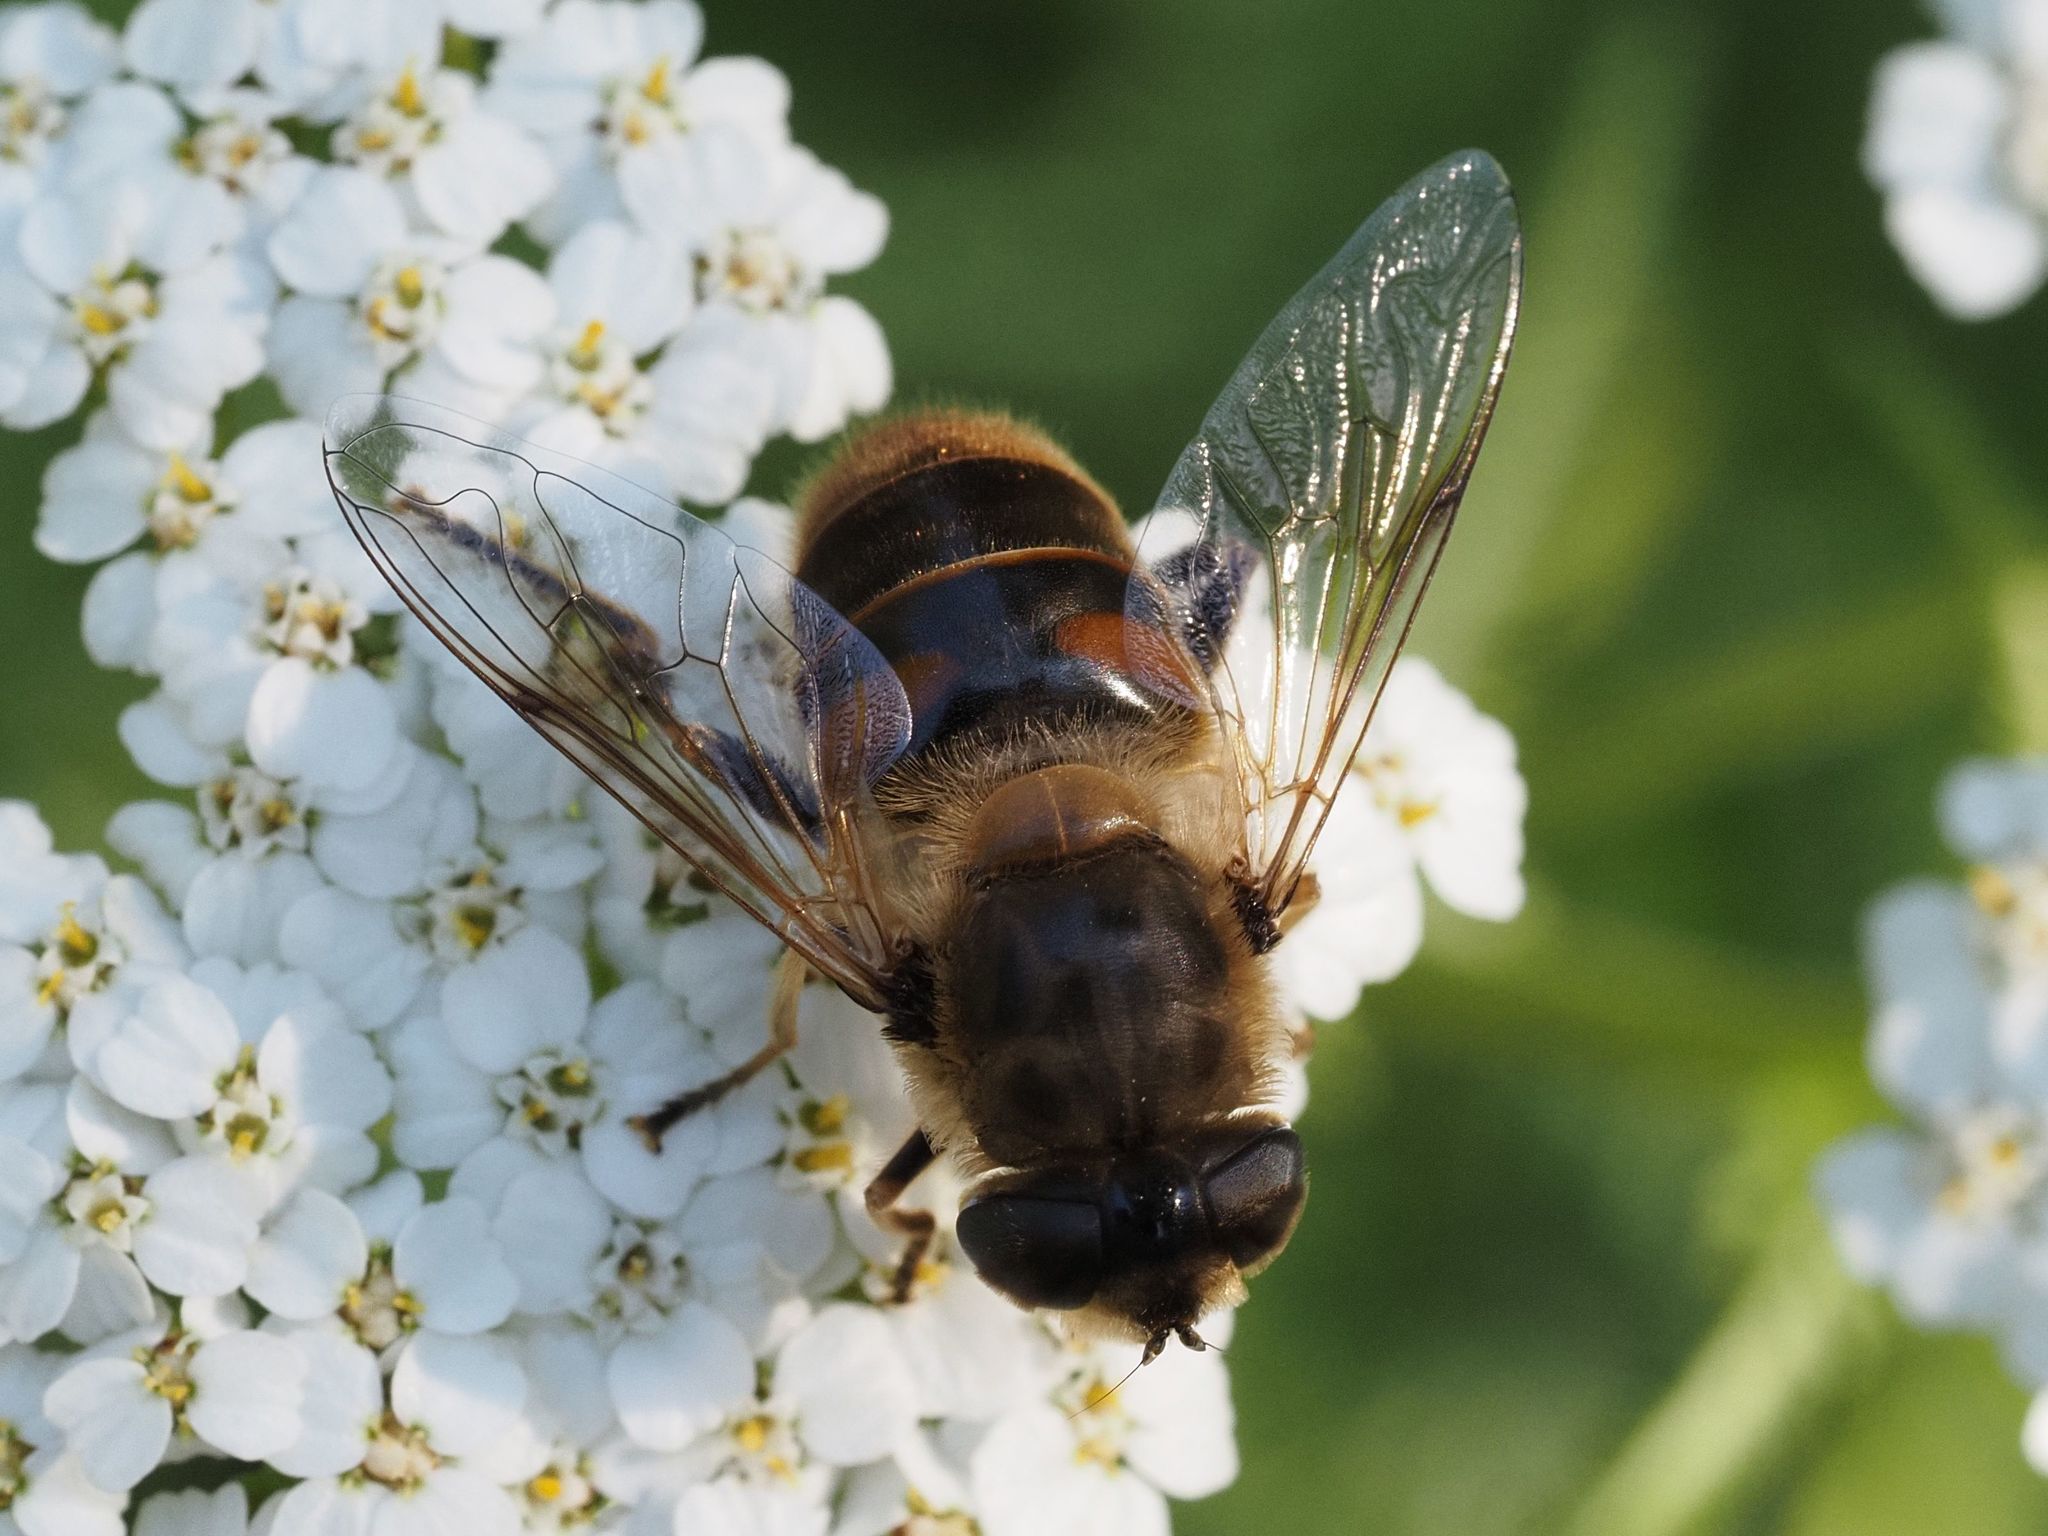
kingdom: Animalia
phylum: Arthropoda
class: Insecta
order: Diptera
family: Syrphidae
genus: Eristalis
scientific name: Eristalis tenax
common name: Drone fly
